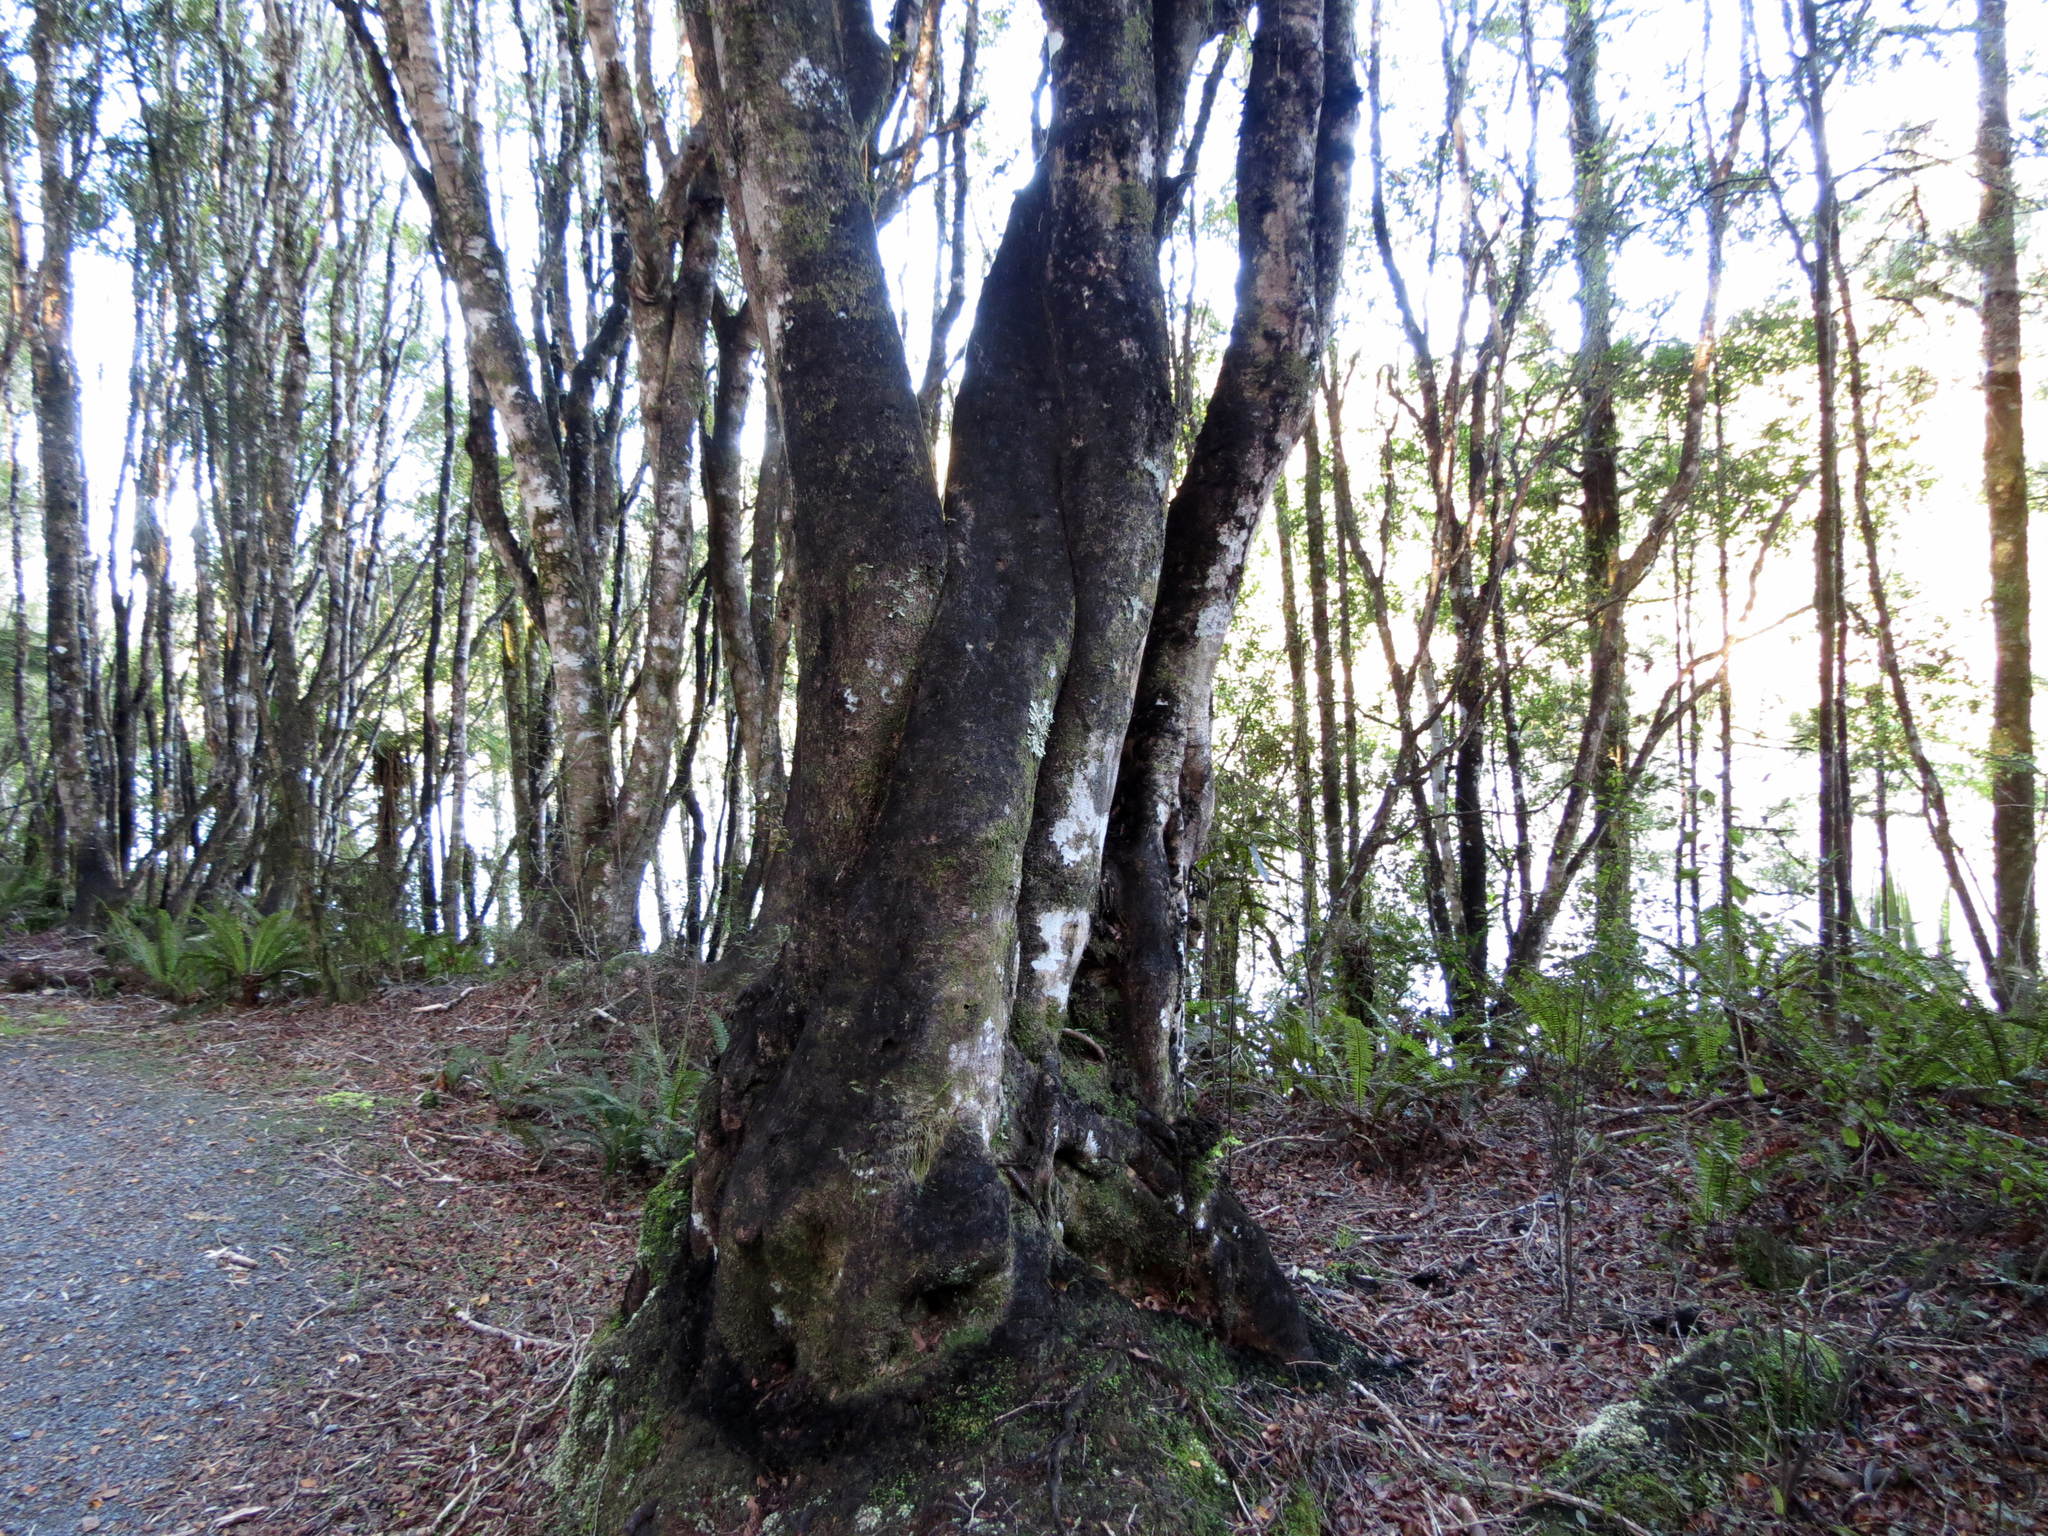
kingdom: Plantae
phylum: Tracheophyta
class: Magnoliopsida
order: Oxalidales
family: Cunoniaceae
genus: Pterophylla
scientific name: Pterophylla racemosa
